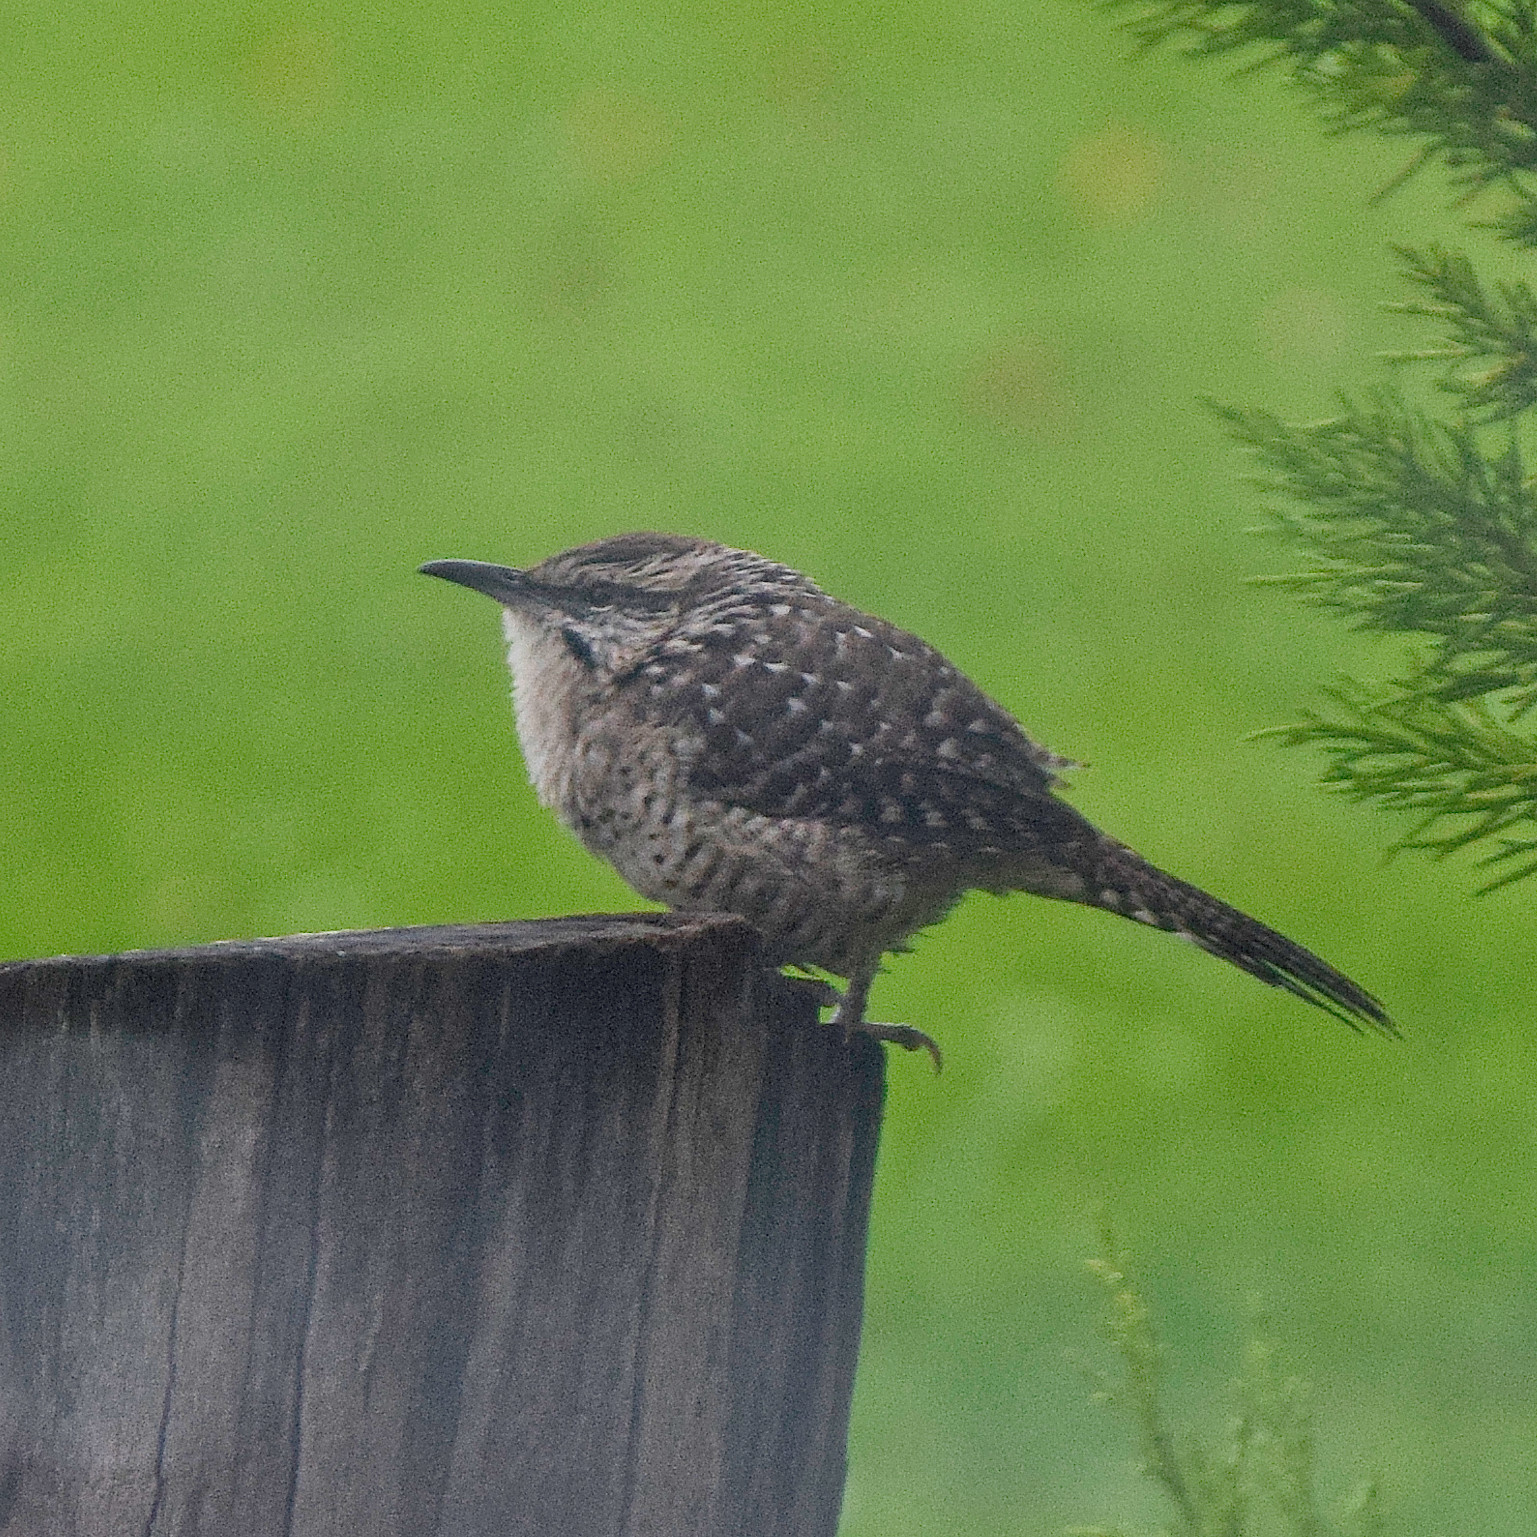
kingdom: Animalia
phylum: Chordata
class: Aves
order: Passeriformes
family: Troglodytidae
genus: Campylorhynchus
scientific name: Campylorhynchus gularis
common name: Spotted wren
